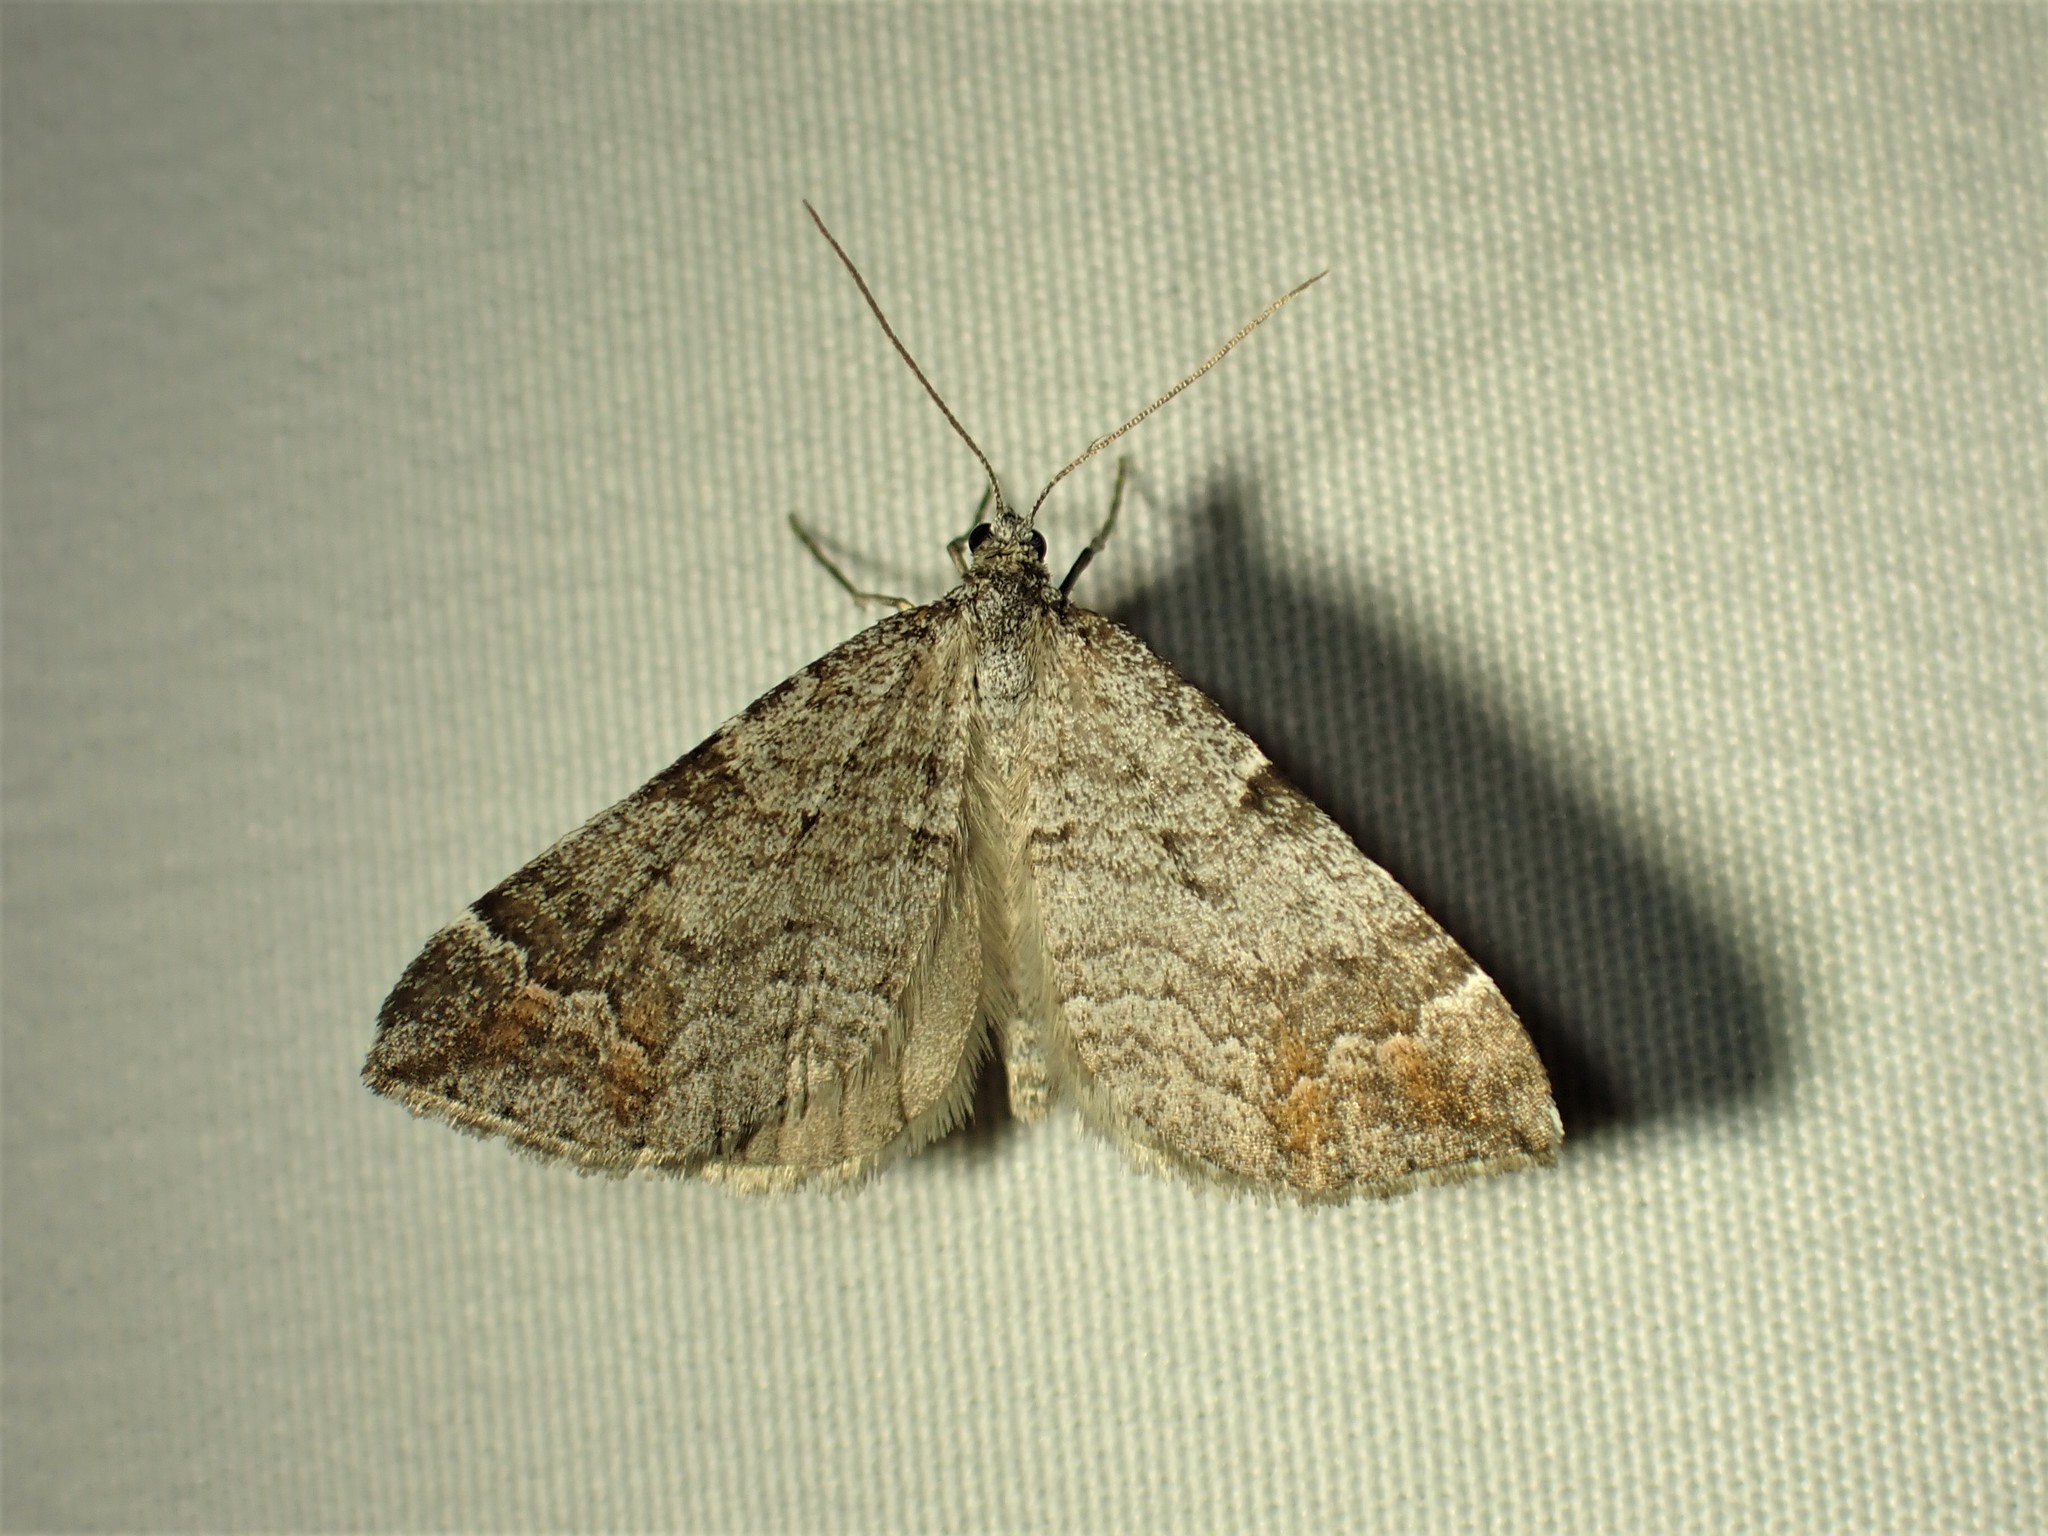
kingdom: Animalia
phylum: Arthropoda
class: Insecta
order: Lepidoptera
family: Geometridae
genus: Carsia
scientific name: Carsia sororiata
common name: Manchester treble-bar
